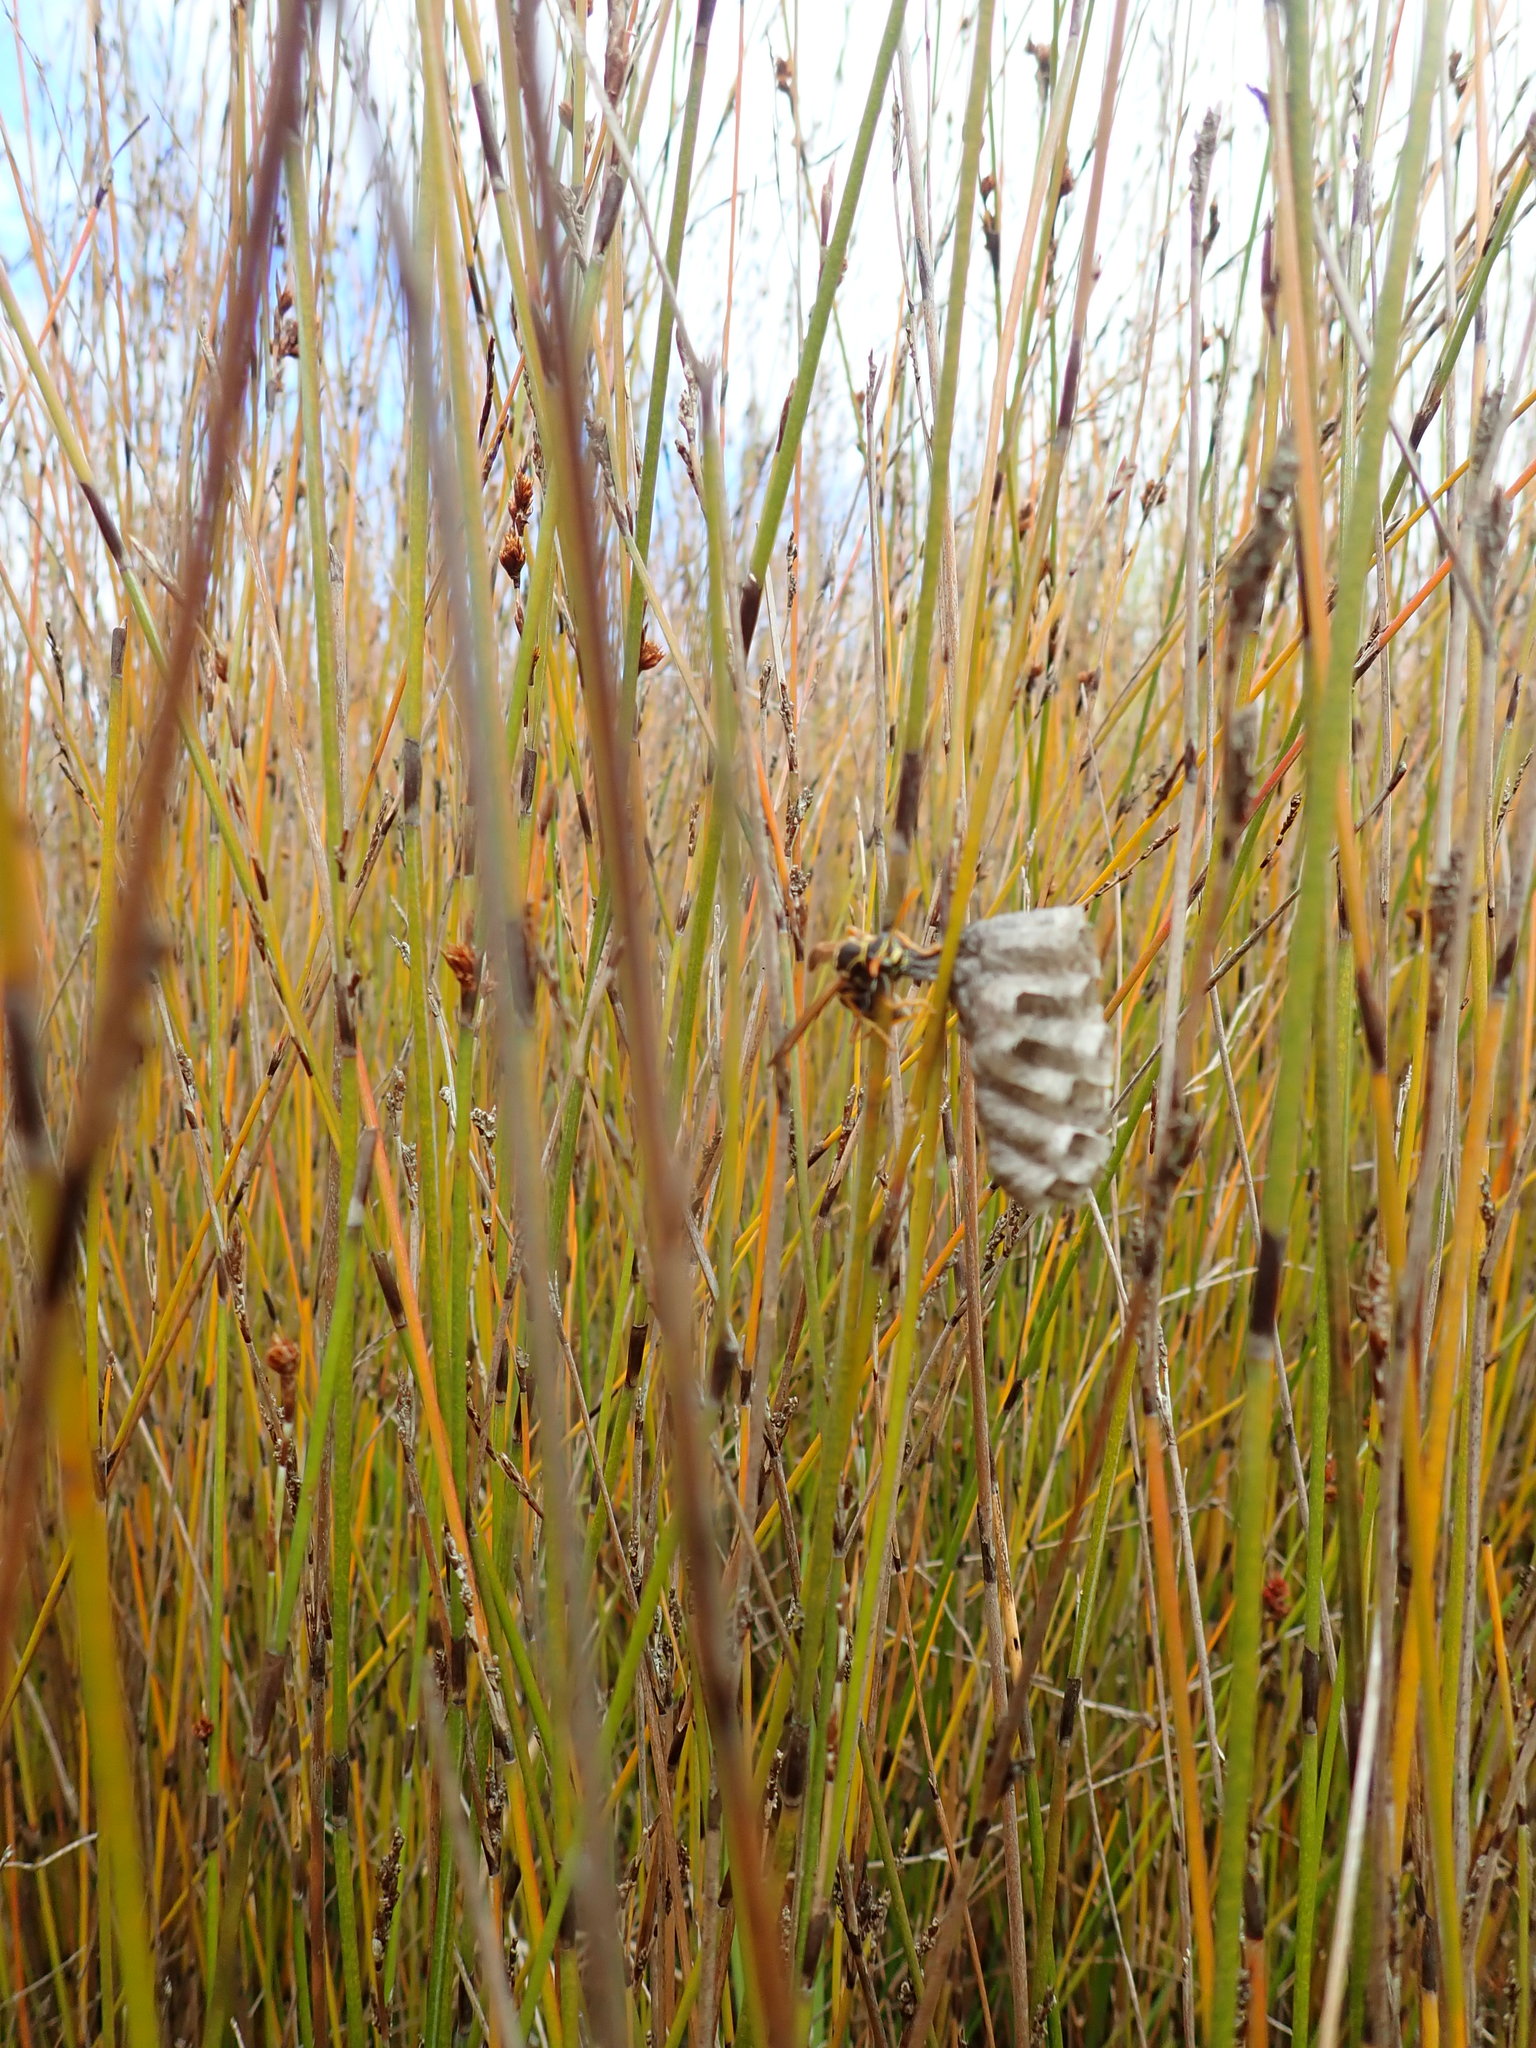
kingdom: Animalia
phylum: Arthropoda
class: Insecta
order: Hymenoptera
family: Eumenidae
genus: Polistes
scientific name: Polistes chinensis
